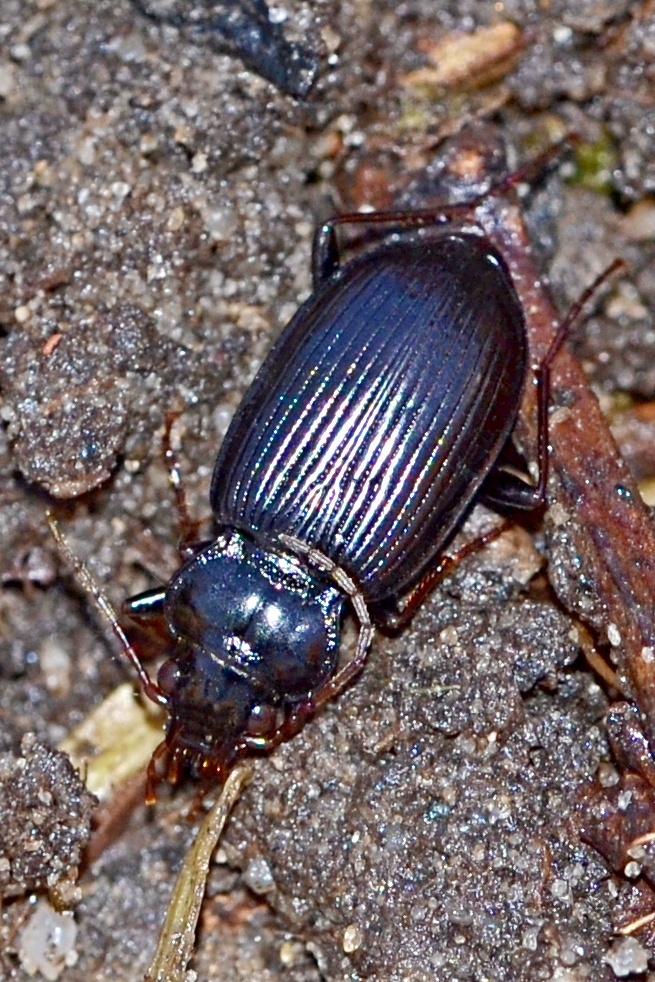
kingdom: Animalia
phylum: Arthropoda
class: Insecta
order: Coleoptera
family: Carabidae
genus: Nebria
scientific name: Nebria brevicollis
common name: Short-necked gazelle beetle
